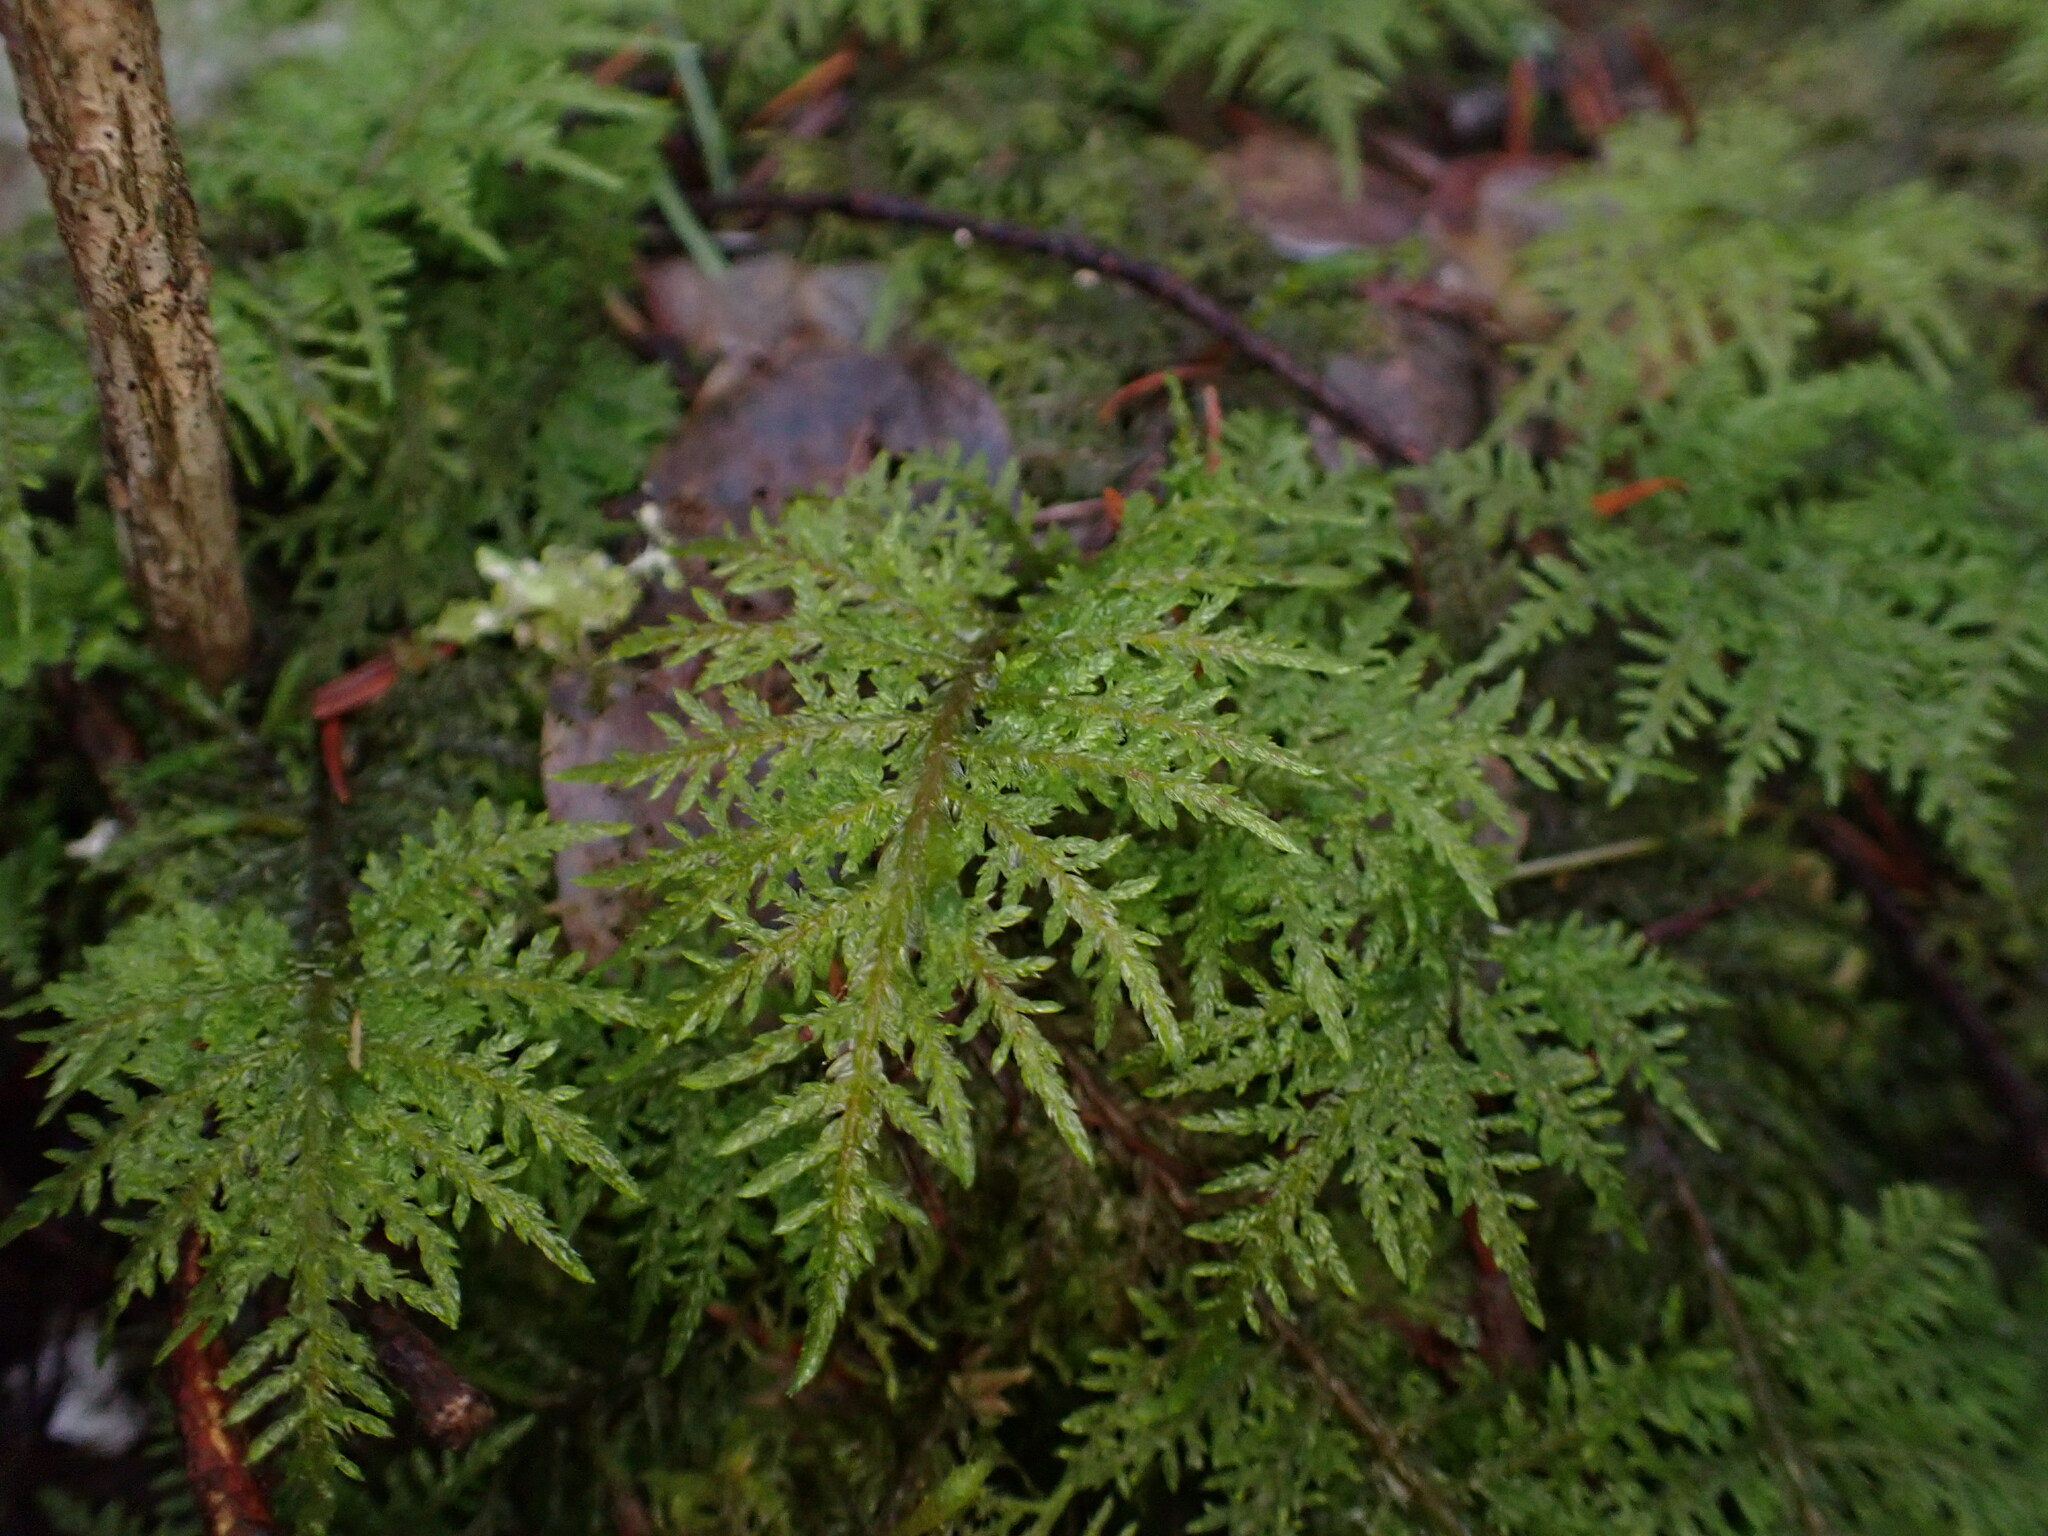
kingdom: Plantae
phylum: Bryophyta
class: Bryopsida
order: Hypnales
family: Hylocomiaceae
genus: Hylocomium
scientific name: Hylocomium splendens
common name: Stairstep moss
